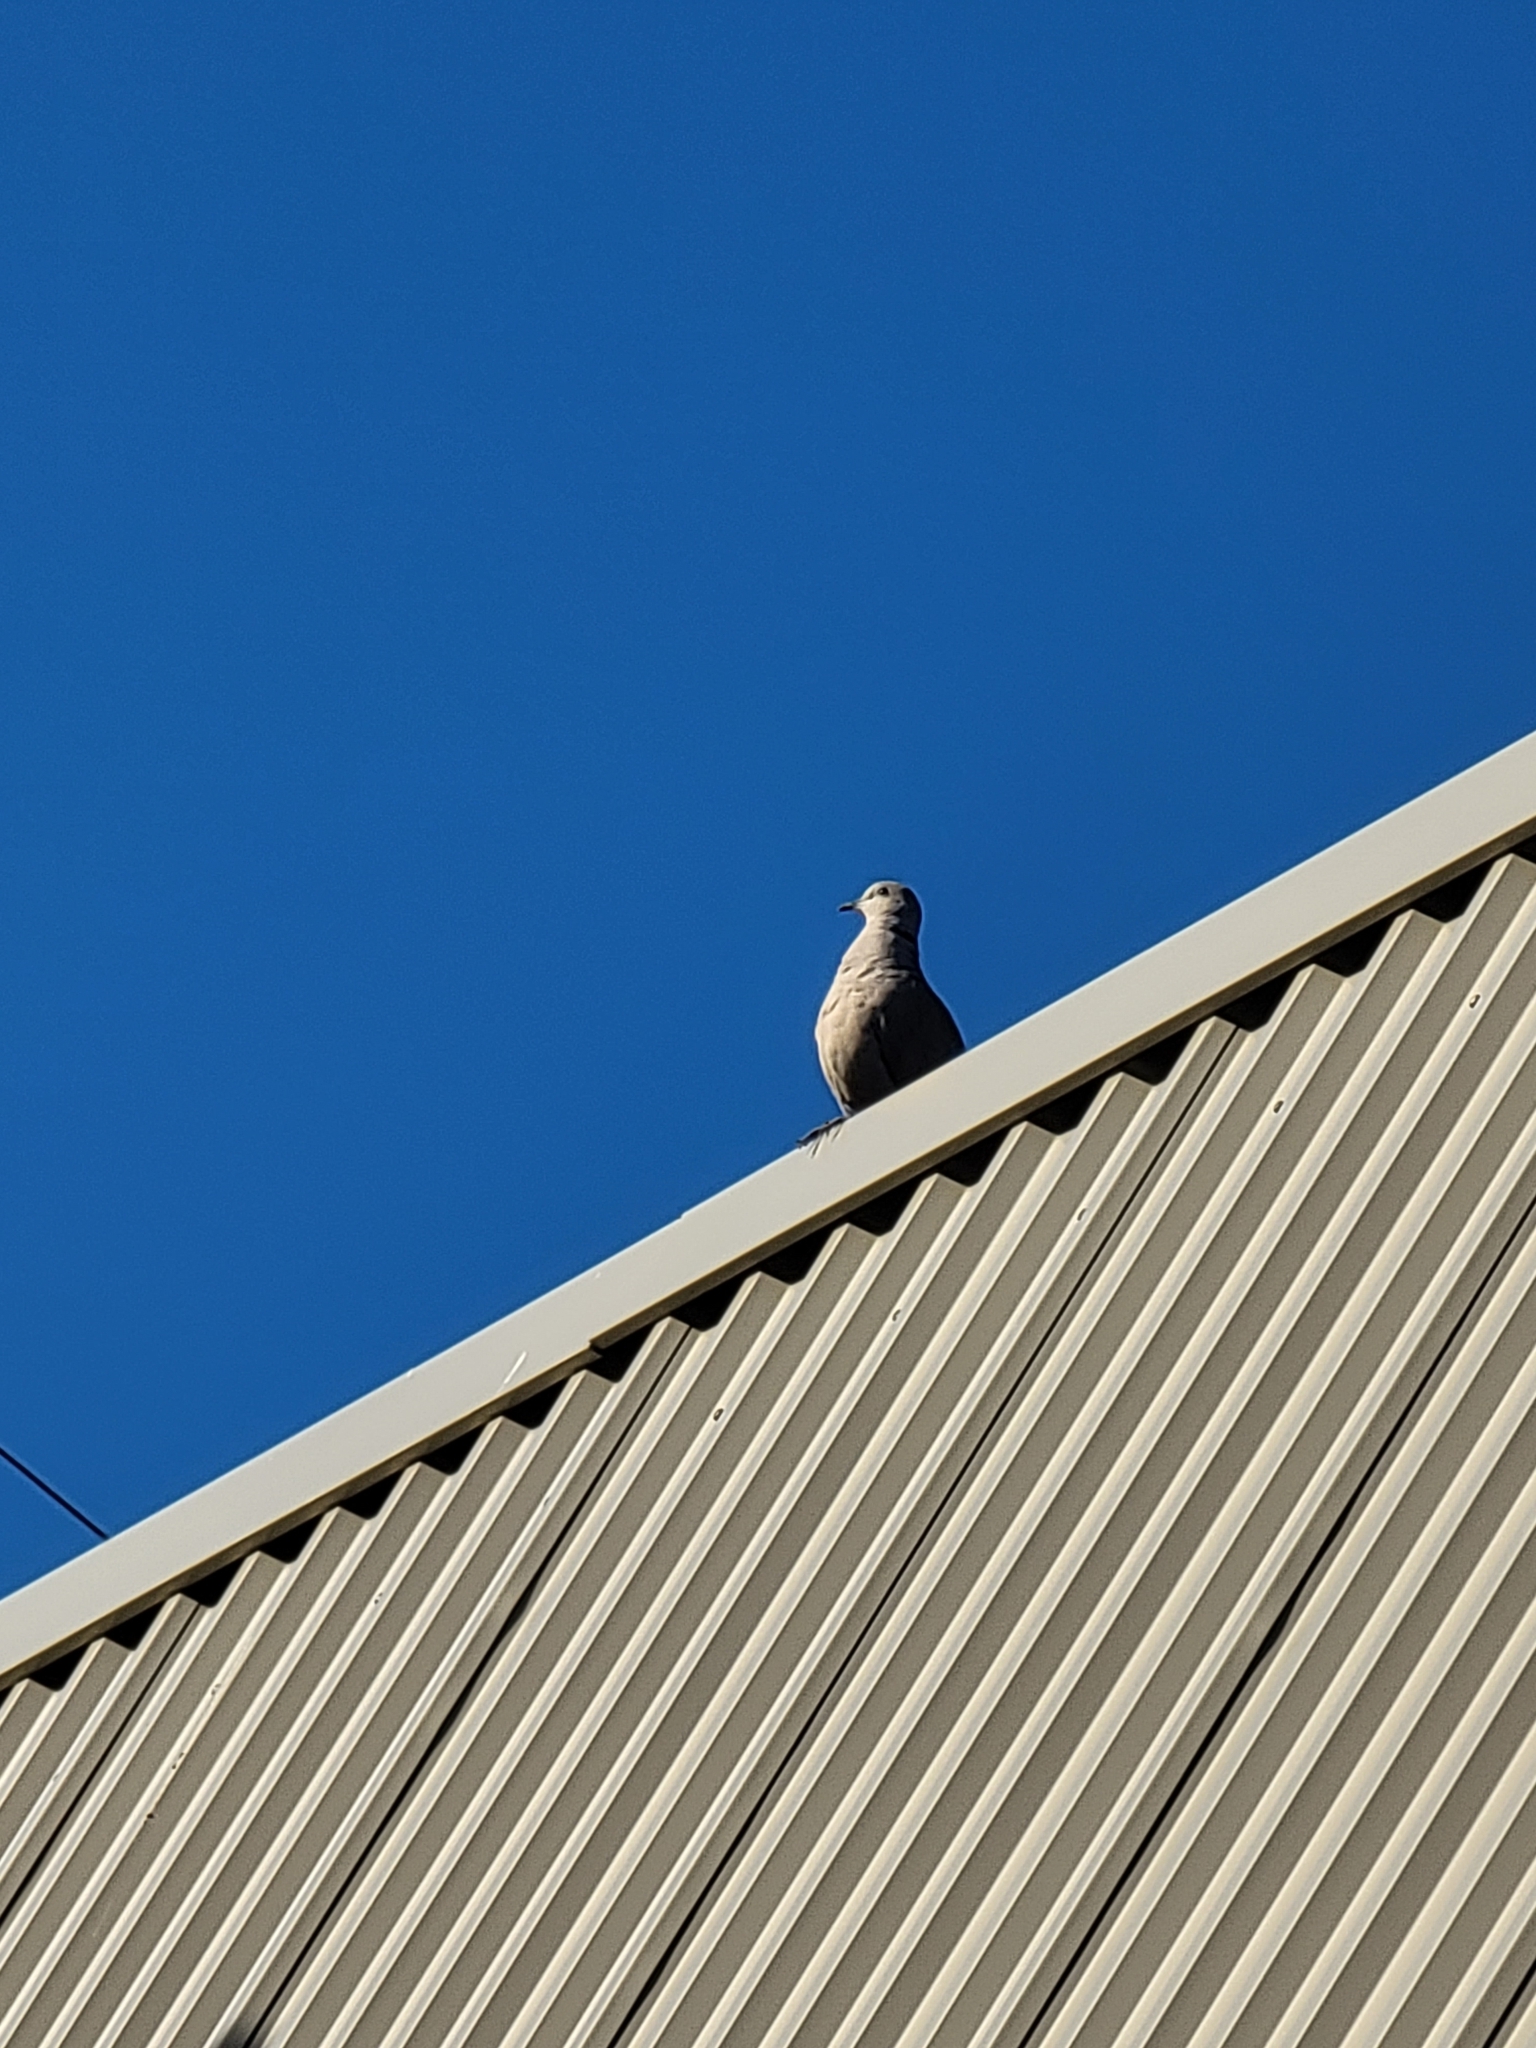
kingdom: Animalia
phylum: Chordata
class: Aves
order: Columbiformes
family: Columbidae
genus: Zenaida
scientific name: Zenaida macroura
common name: Mourning dove
